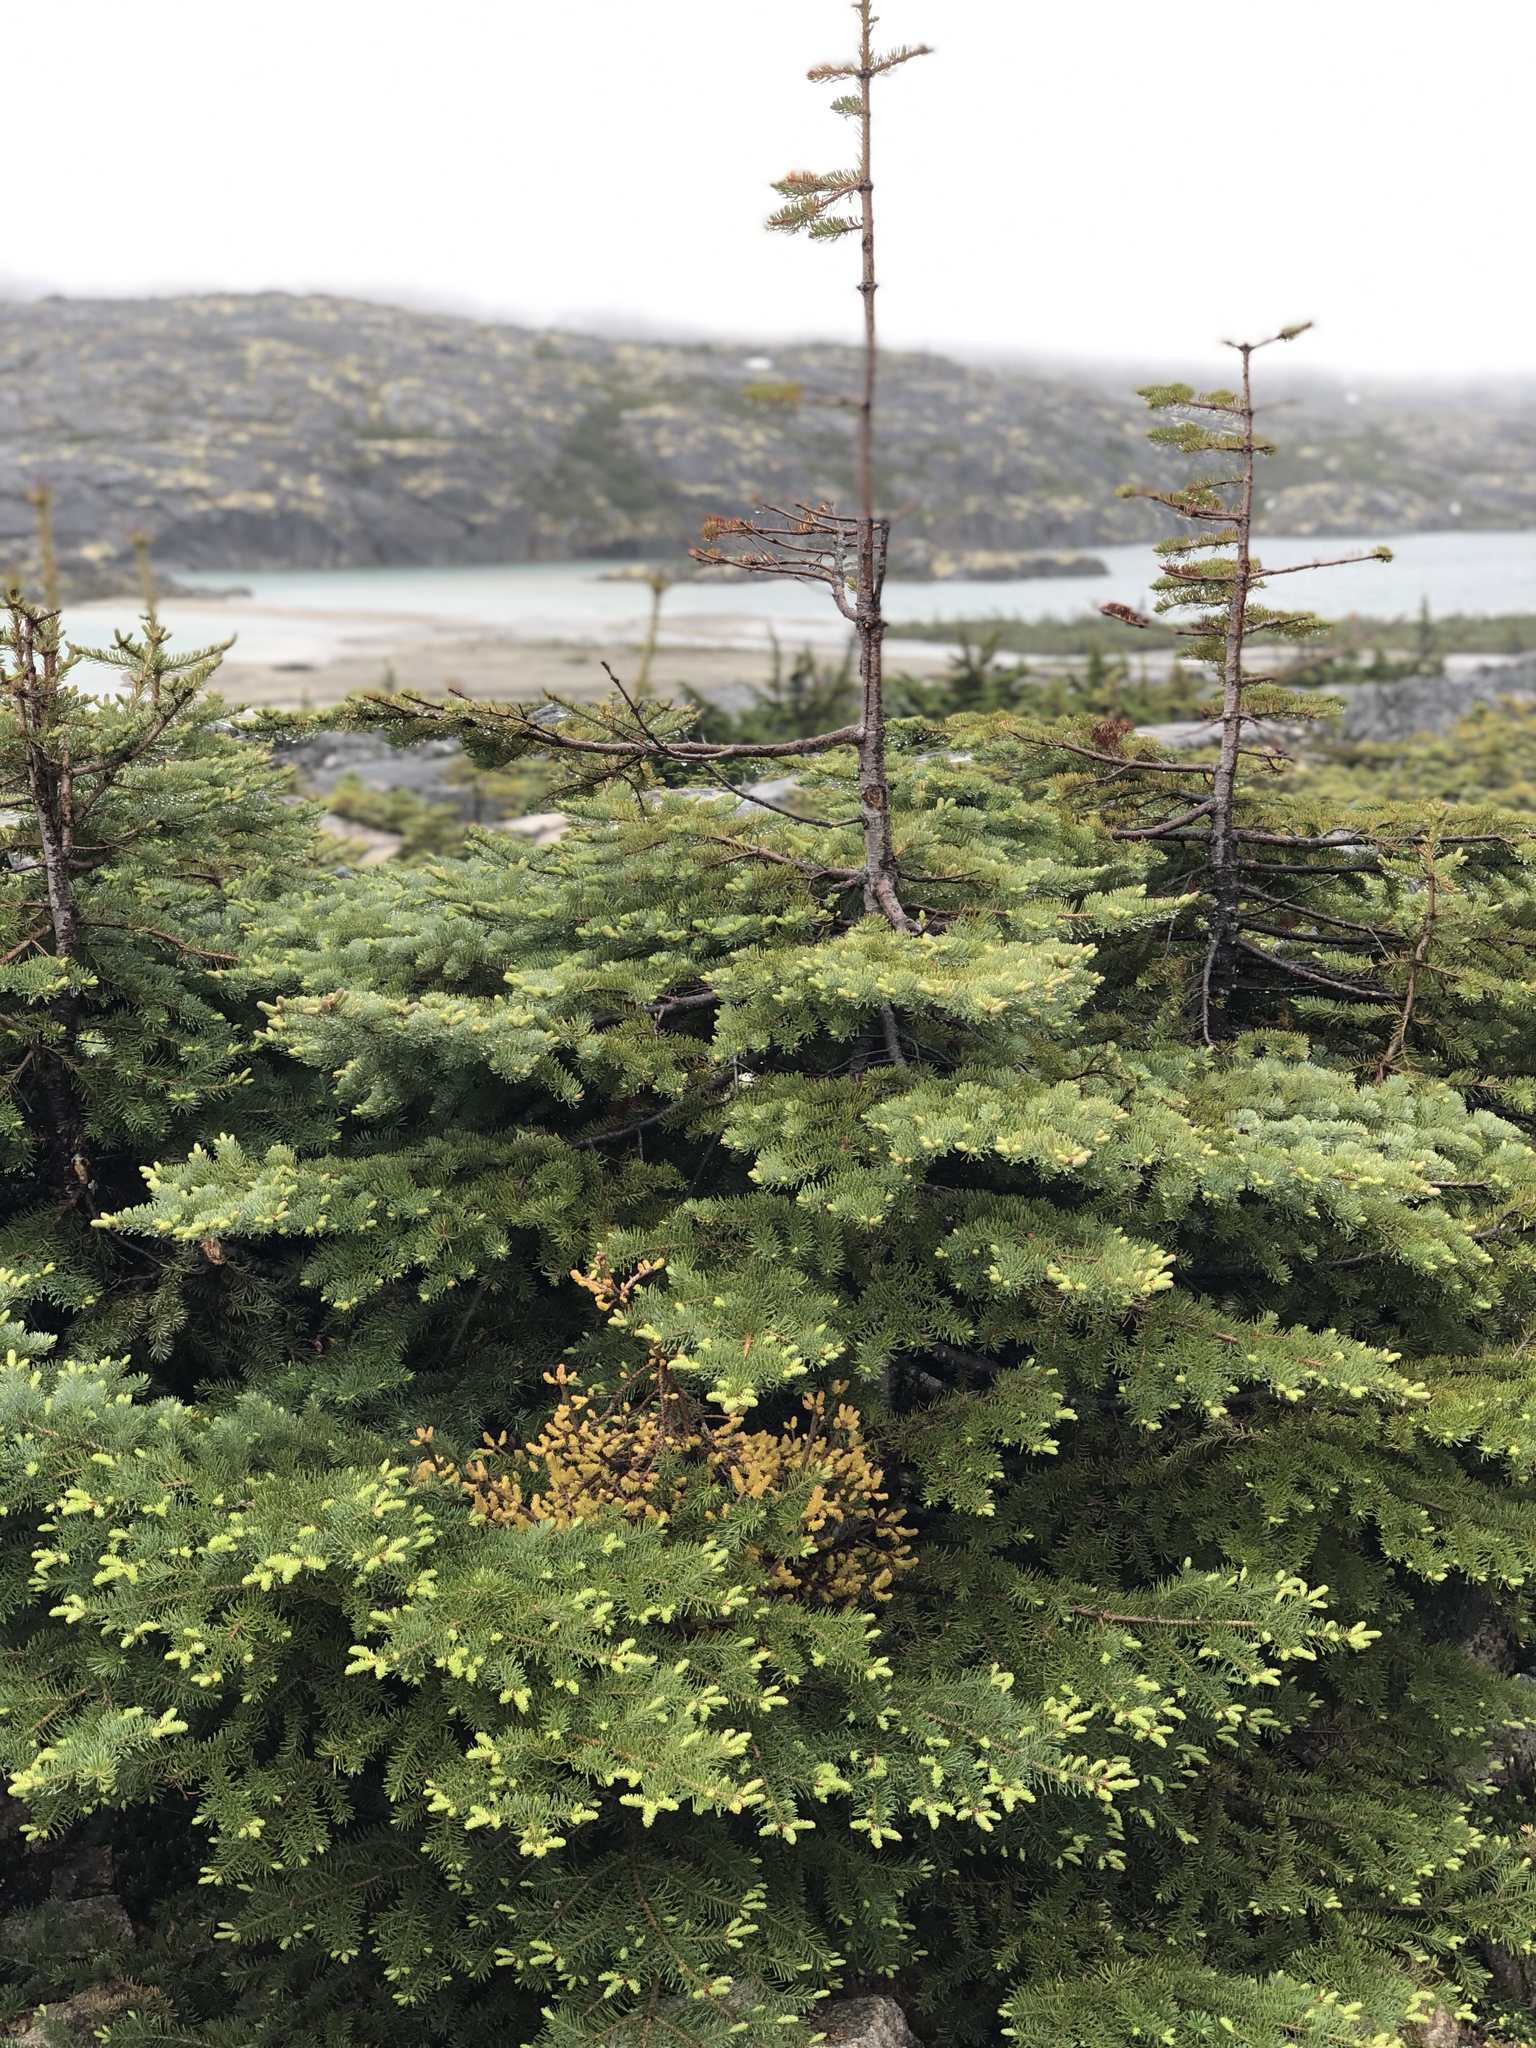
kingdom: Plantae
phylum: Tracheophyta
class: Pinopsida
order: Pinales
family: Pinaceae
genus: Abies
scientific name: Abies lasiocarpa
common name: Subalpine fir
